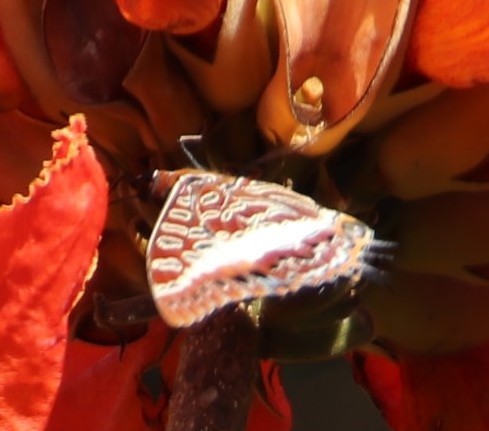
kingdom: Animalia
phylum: Arthropoda
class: Insecta
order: Lepidoptera
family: Nymphalidae
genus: Charaxes
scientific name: Charaxes brutus
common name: White-barred charaxes
